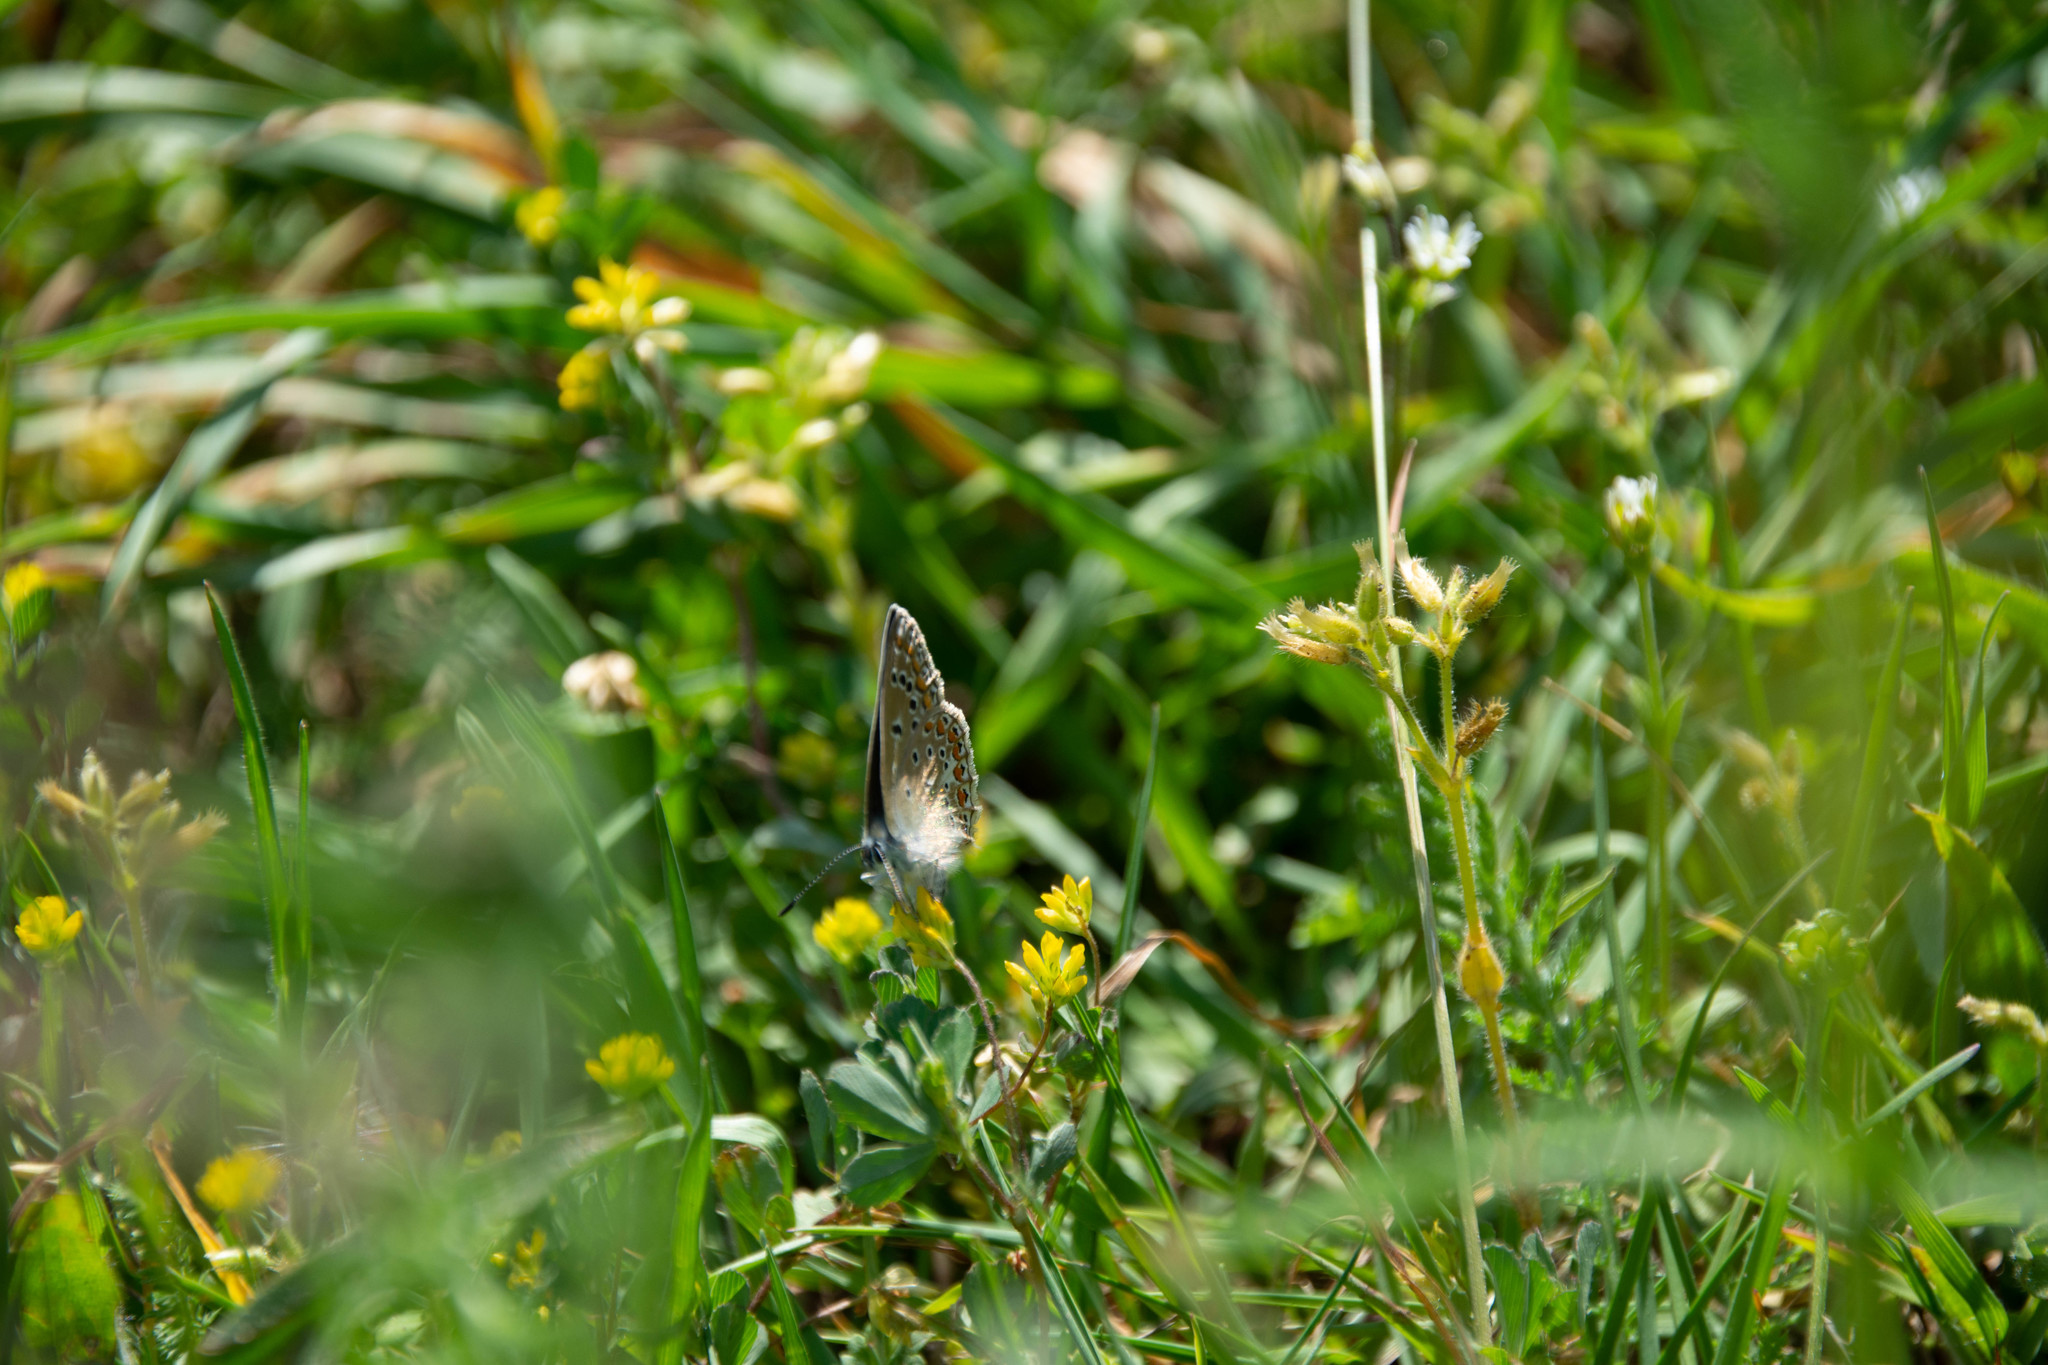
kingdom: Animalia
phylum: Arthropoda
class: Insecta
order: Lepidoptera
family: Lycaenidae
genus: Polyommatus
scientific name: Polyommatus icarus
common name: Common blue
